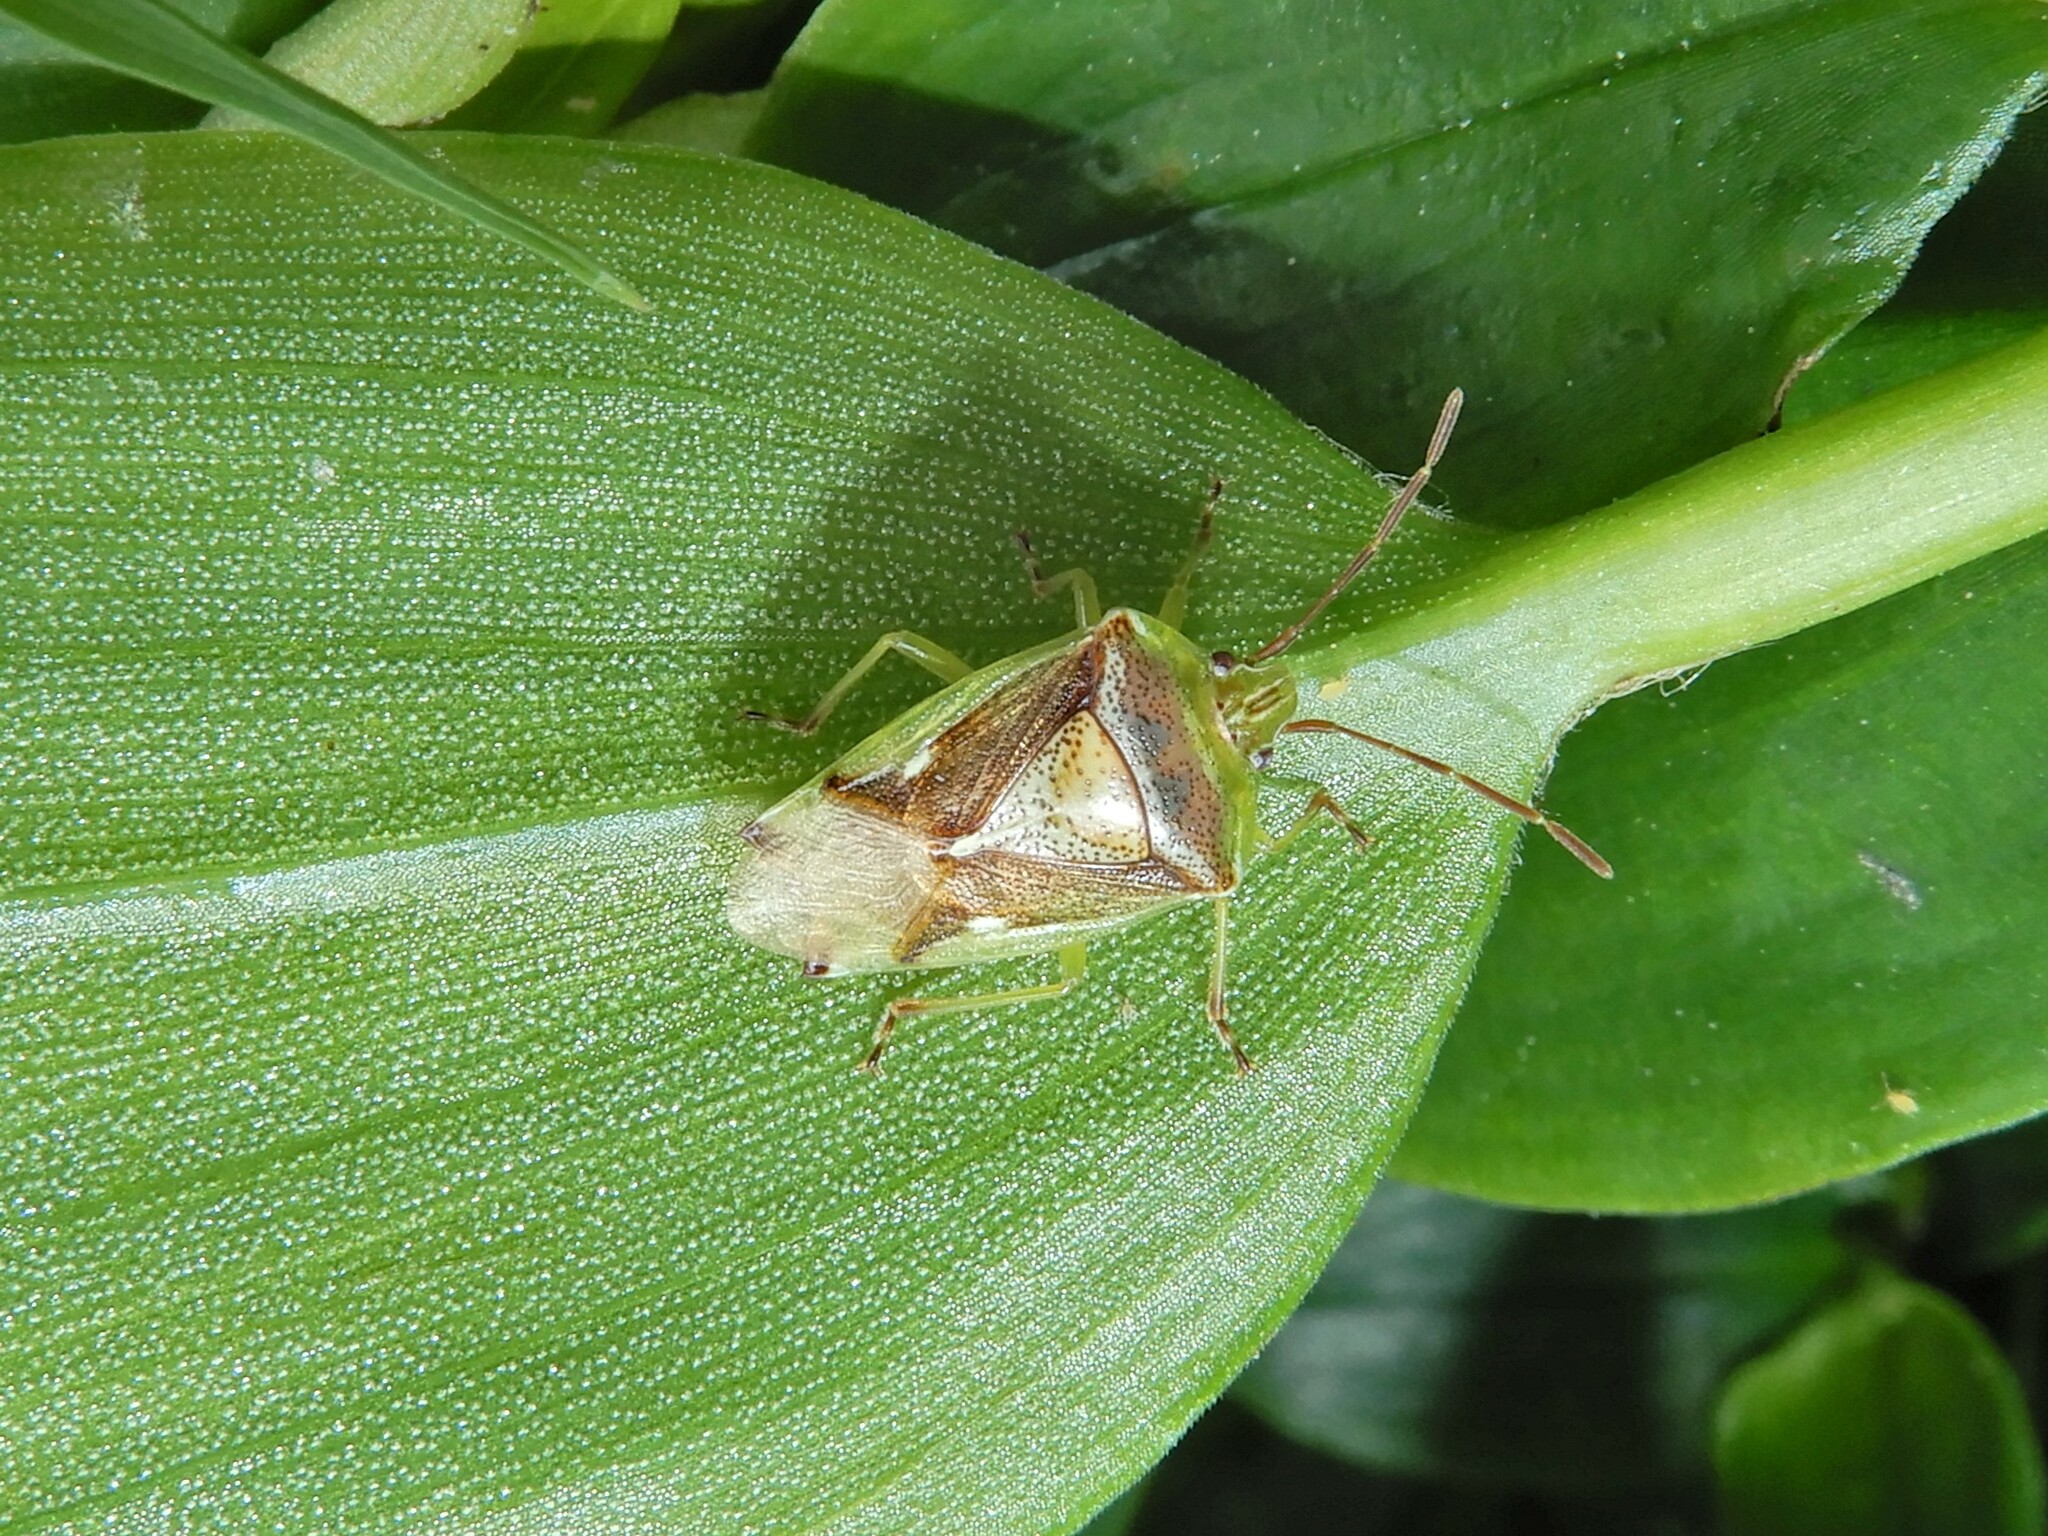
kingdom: Animalia
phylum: Arthropoda
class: Insecta
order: Hemiptera
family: Acanthosomatidae
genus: Oncacontias
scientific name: Oncacontias vittatus
